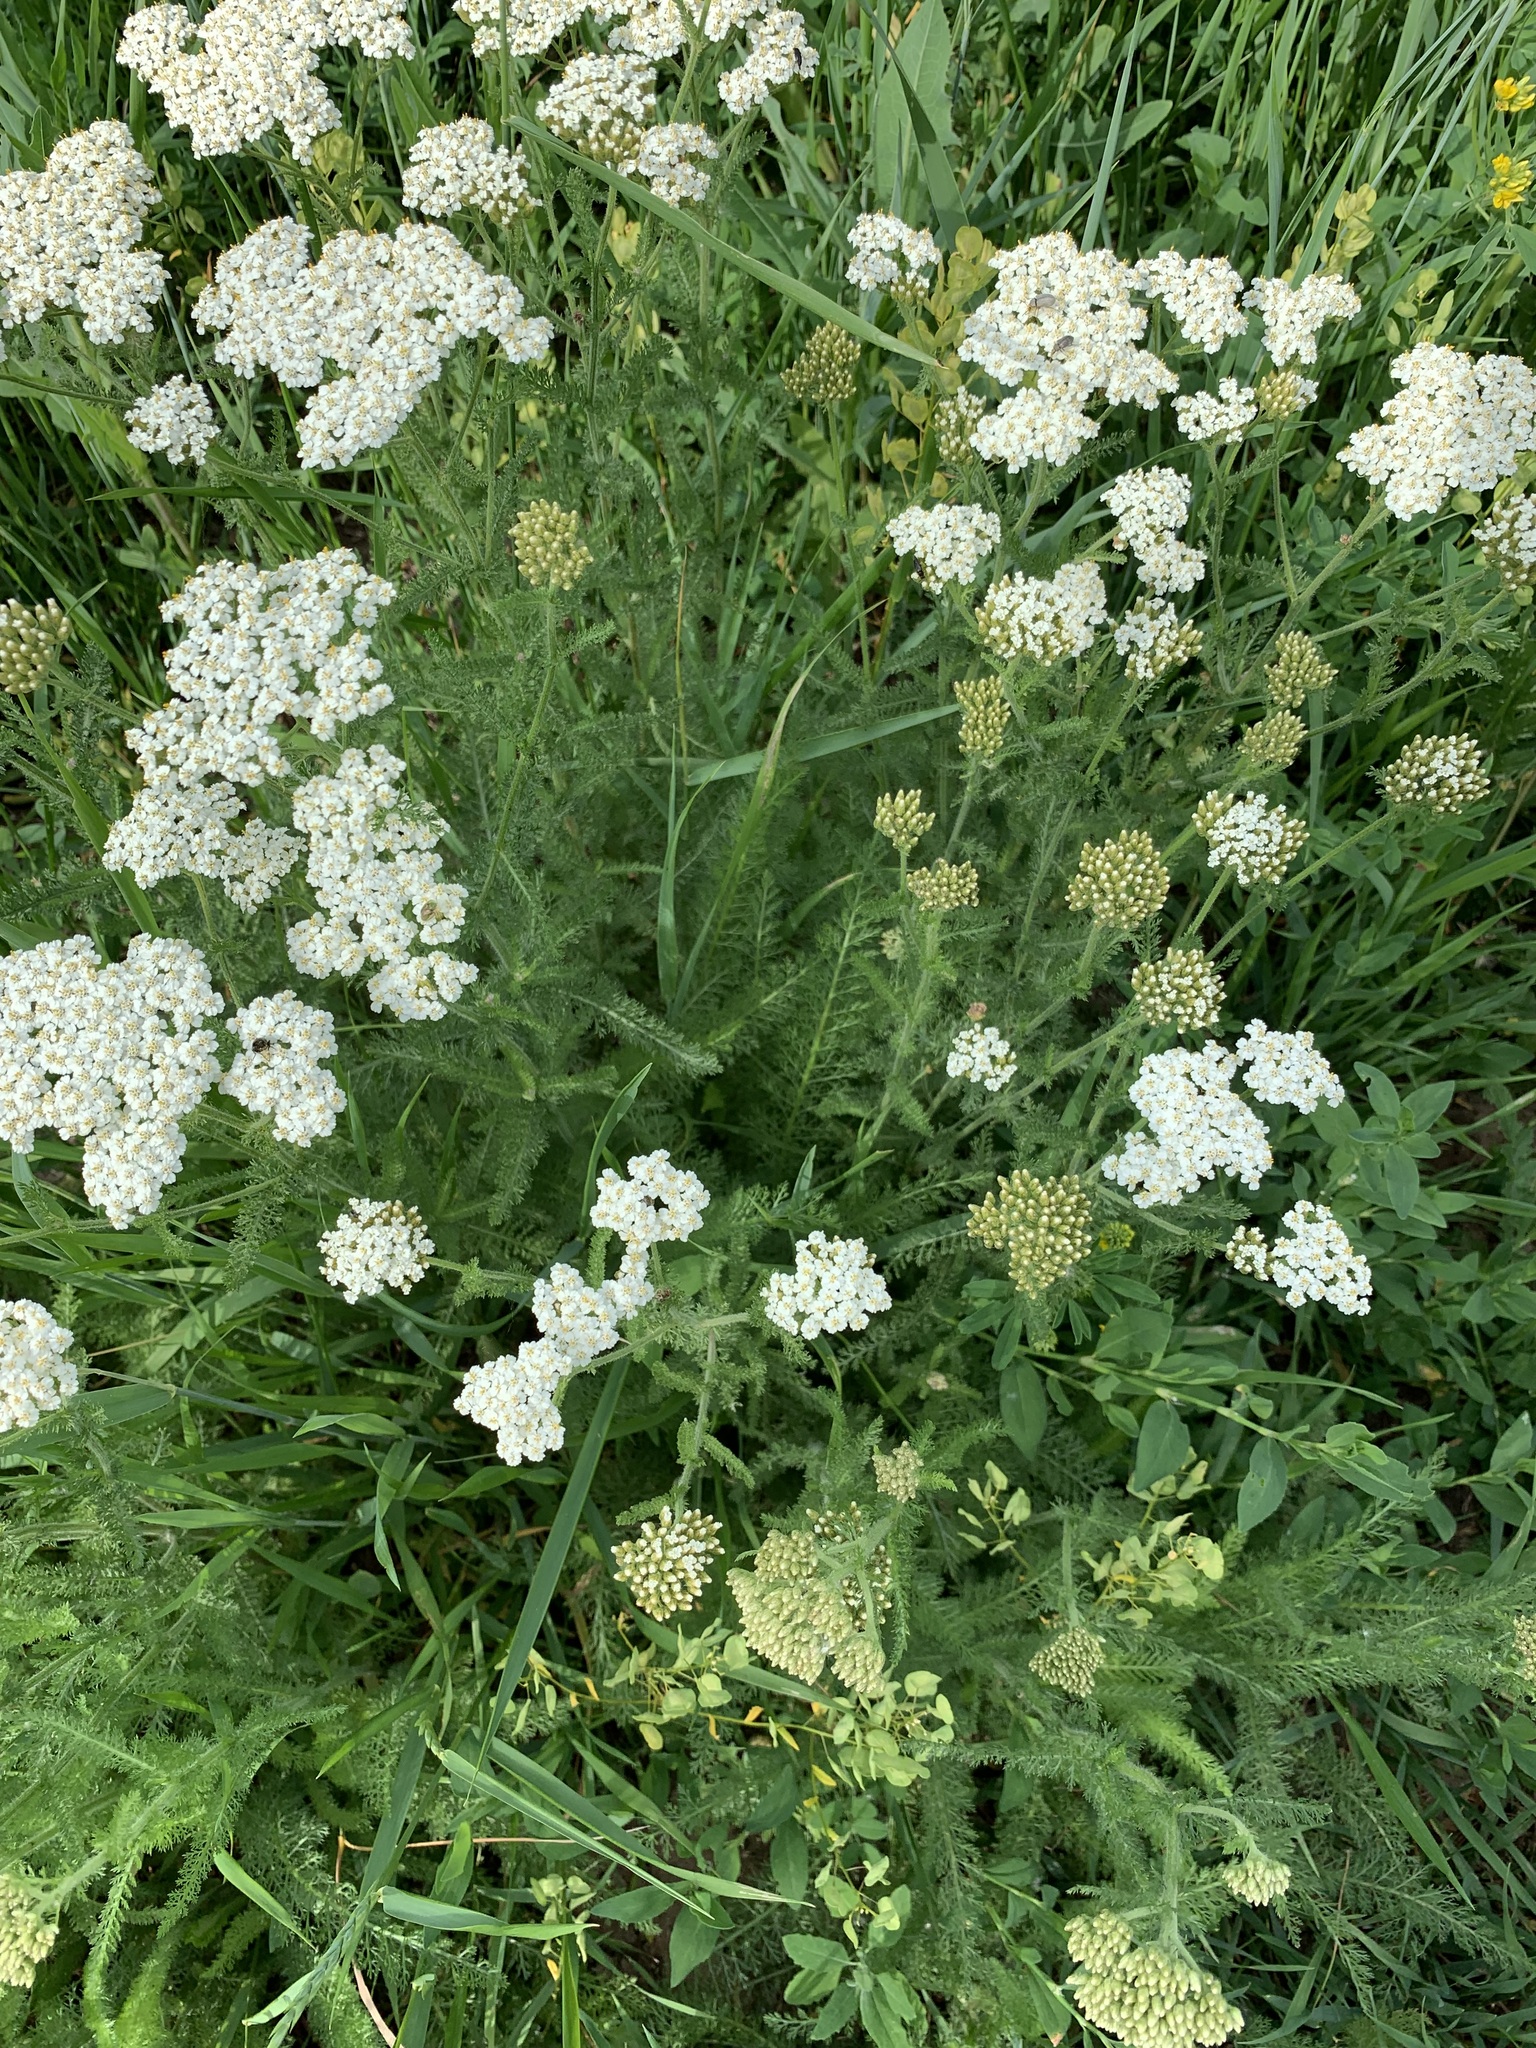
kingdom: Plantae
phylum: Tracheophyta
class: Magnoliopsida
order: Asterales
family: Asteraceae
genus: Achillea
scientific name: Achillea setacea
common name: Bristly yarrow
